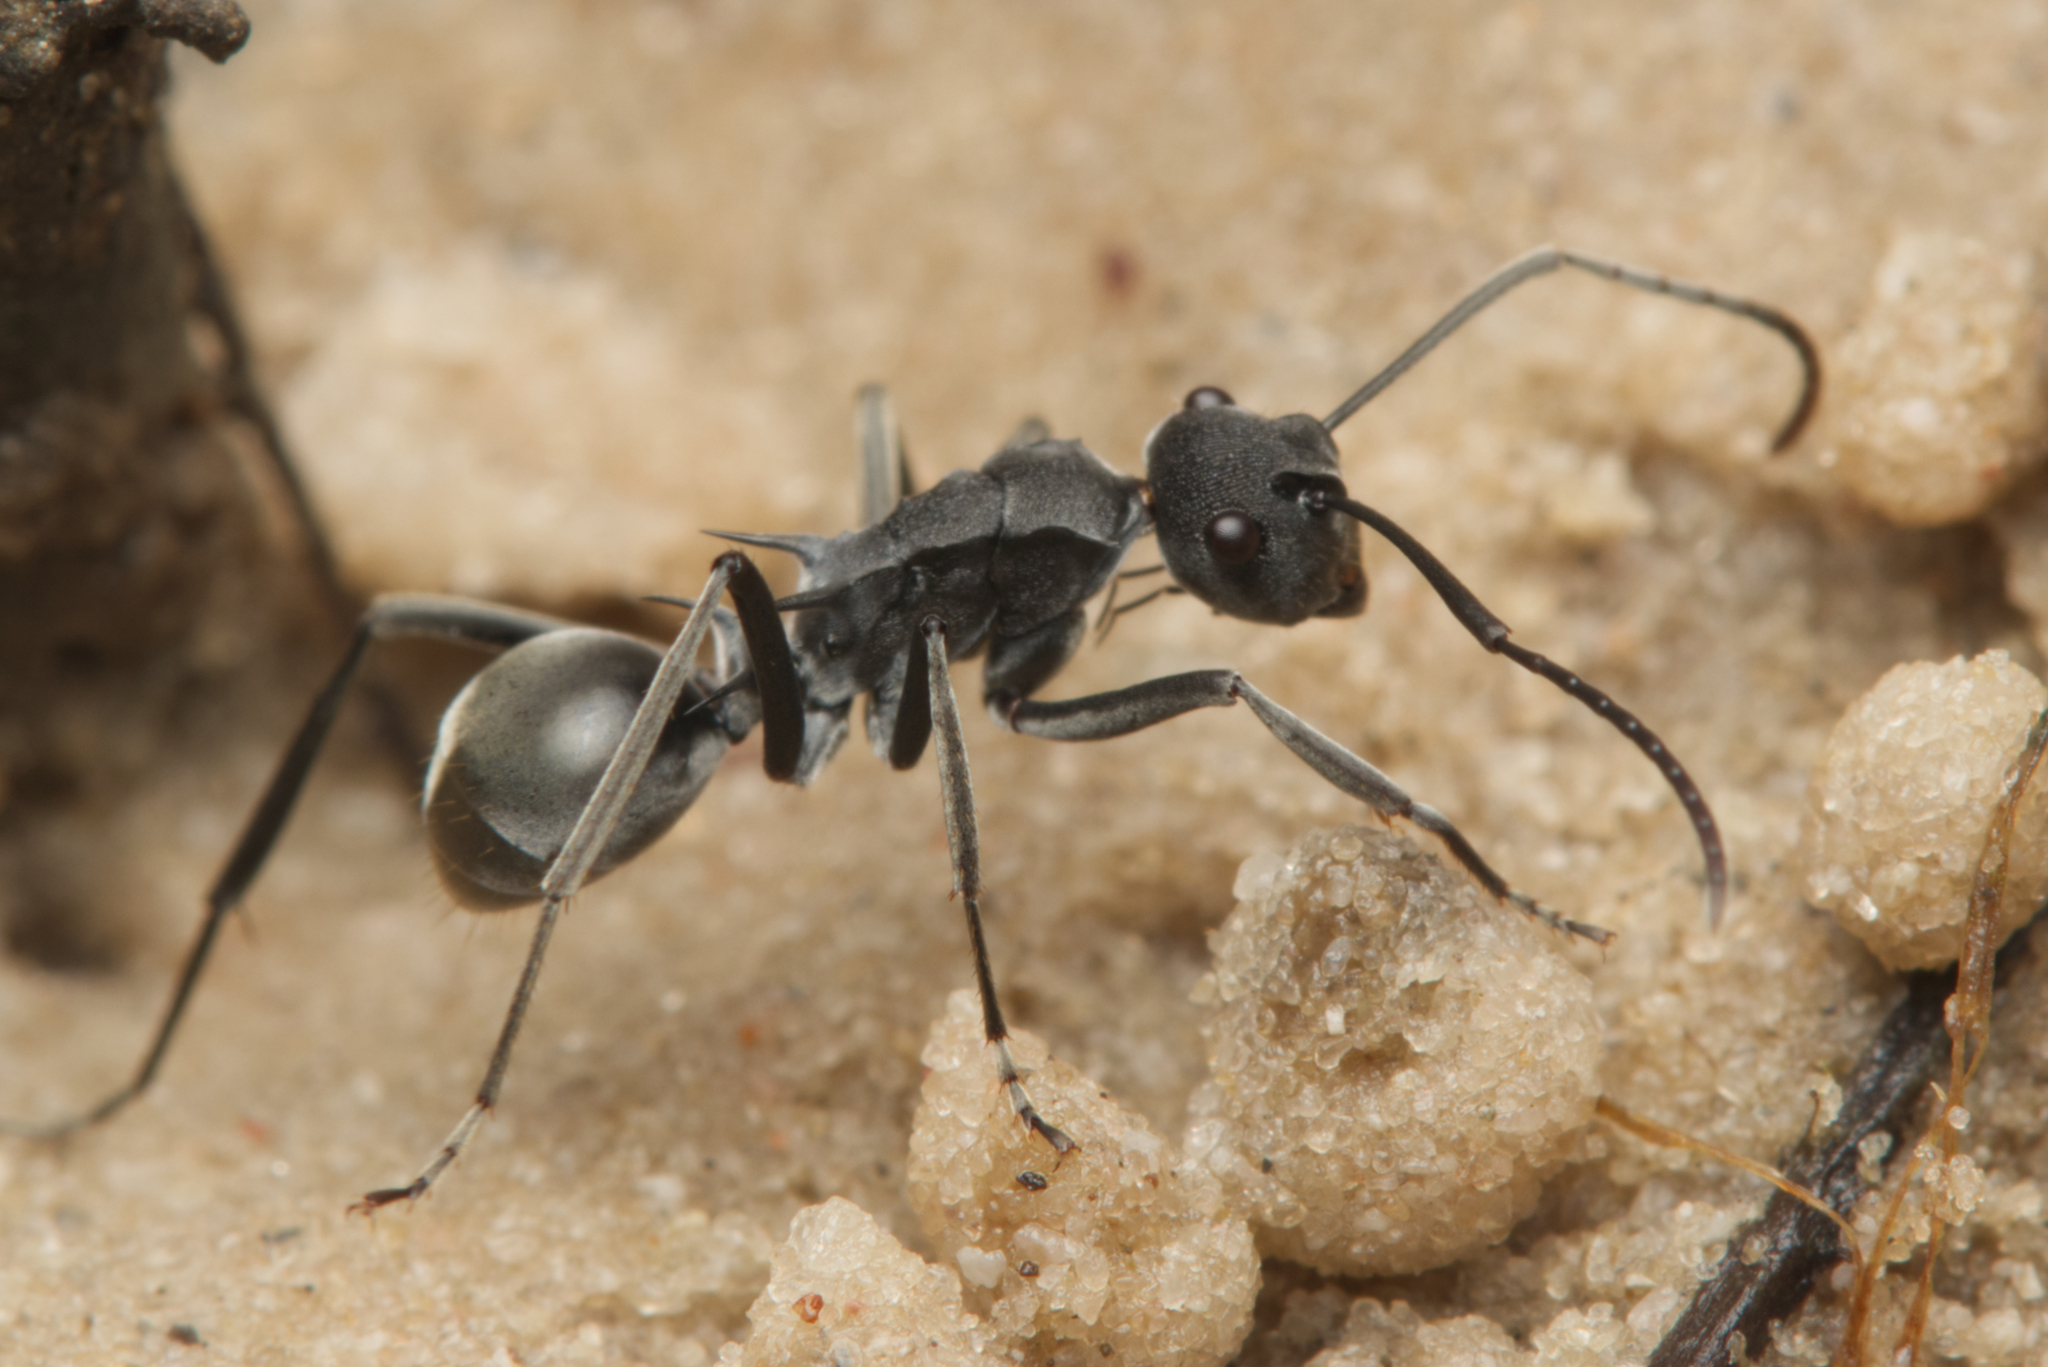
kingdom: Animalia
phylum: Arthropoda
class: Insecta
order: Hymenoptera
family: Formicidae
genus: Polyrhachis
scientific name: Polyrhachis sokolova
